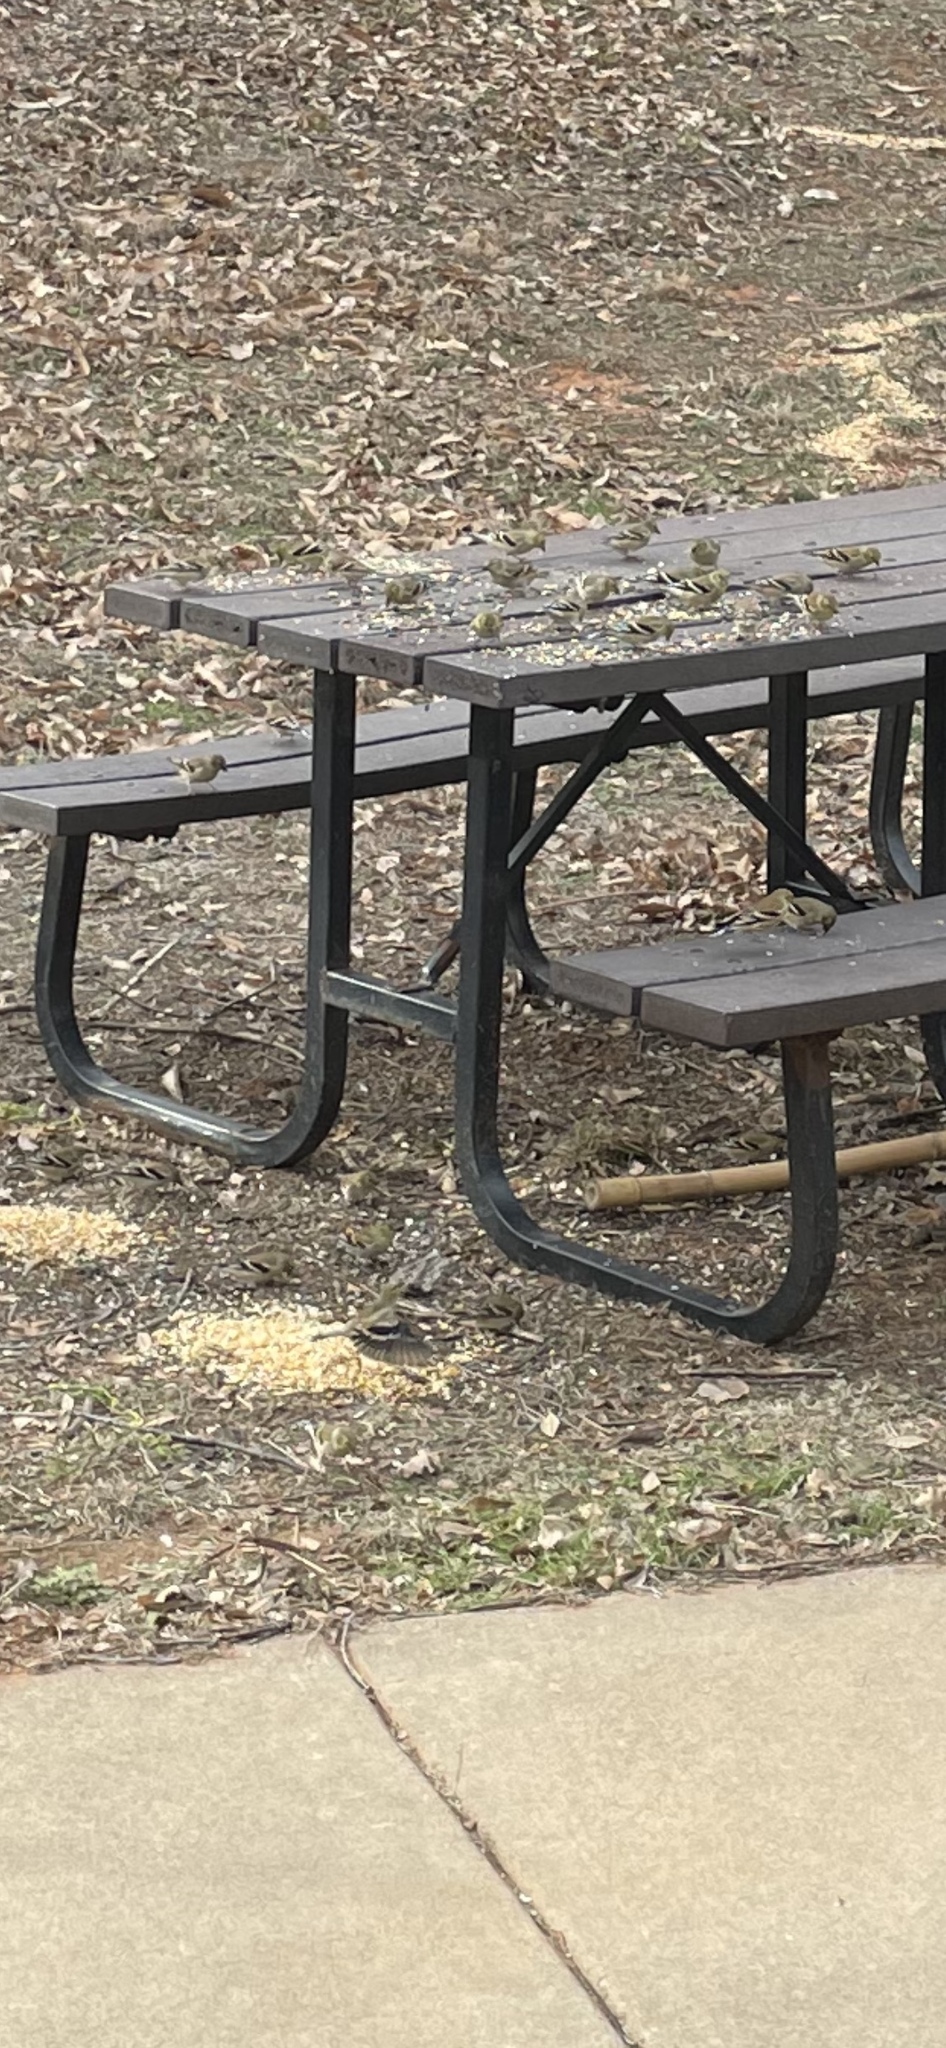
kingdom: Animalia
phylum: Chordata
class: Aves
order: Passeriformes
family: Fringillidae
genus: Spinus
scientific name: Spinus tristis
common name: American goldfinch
